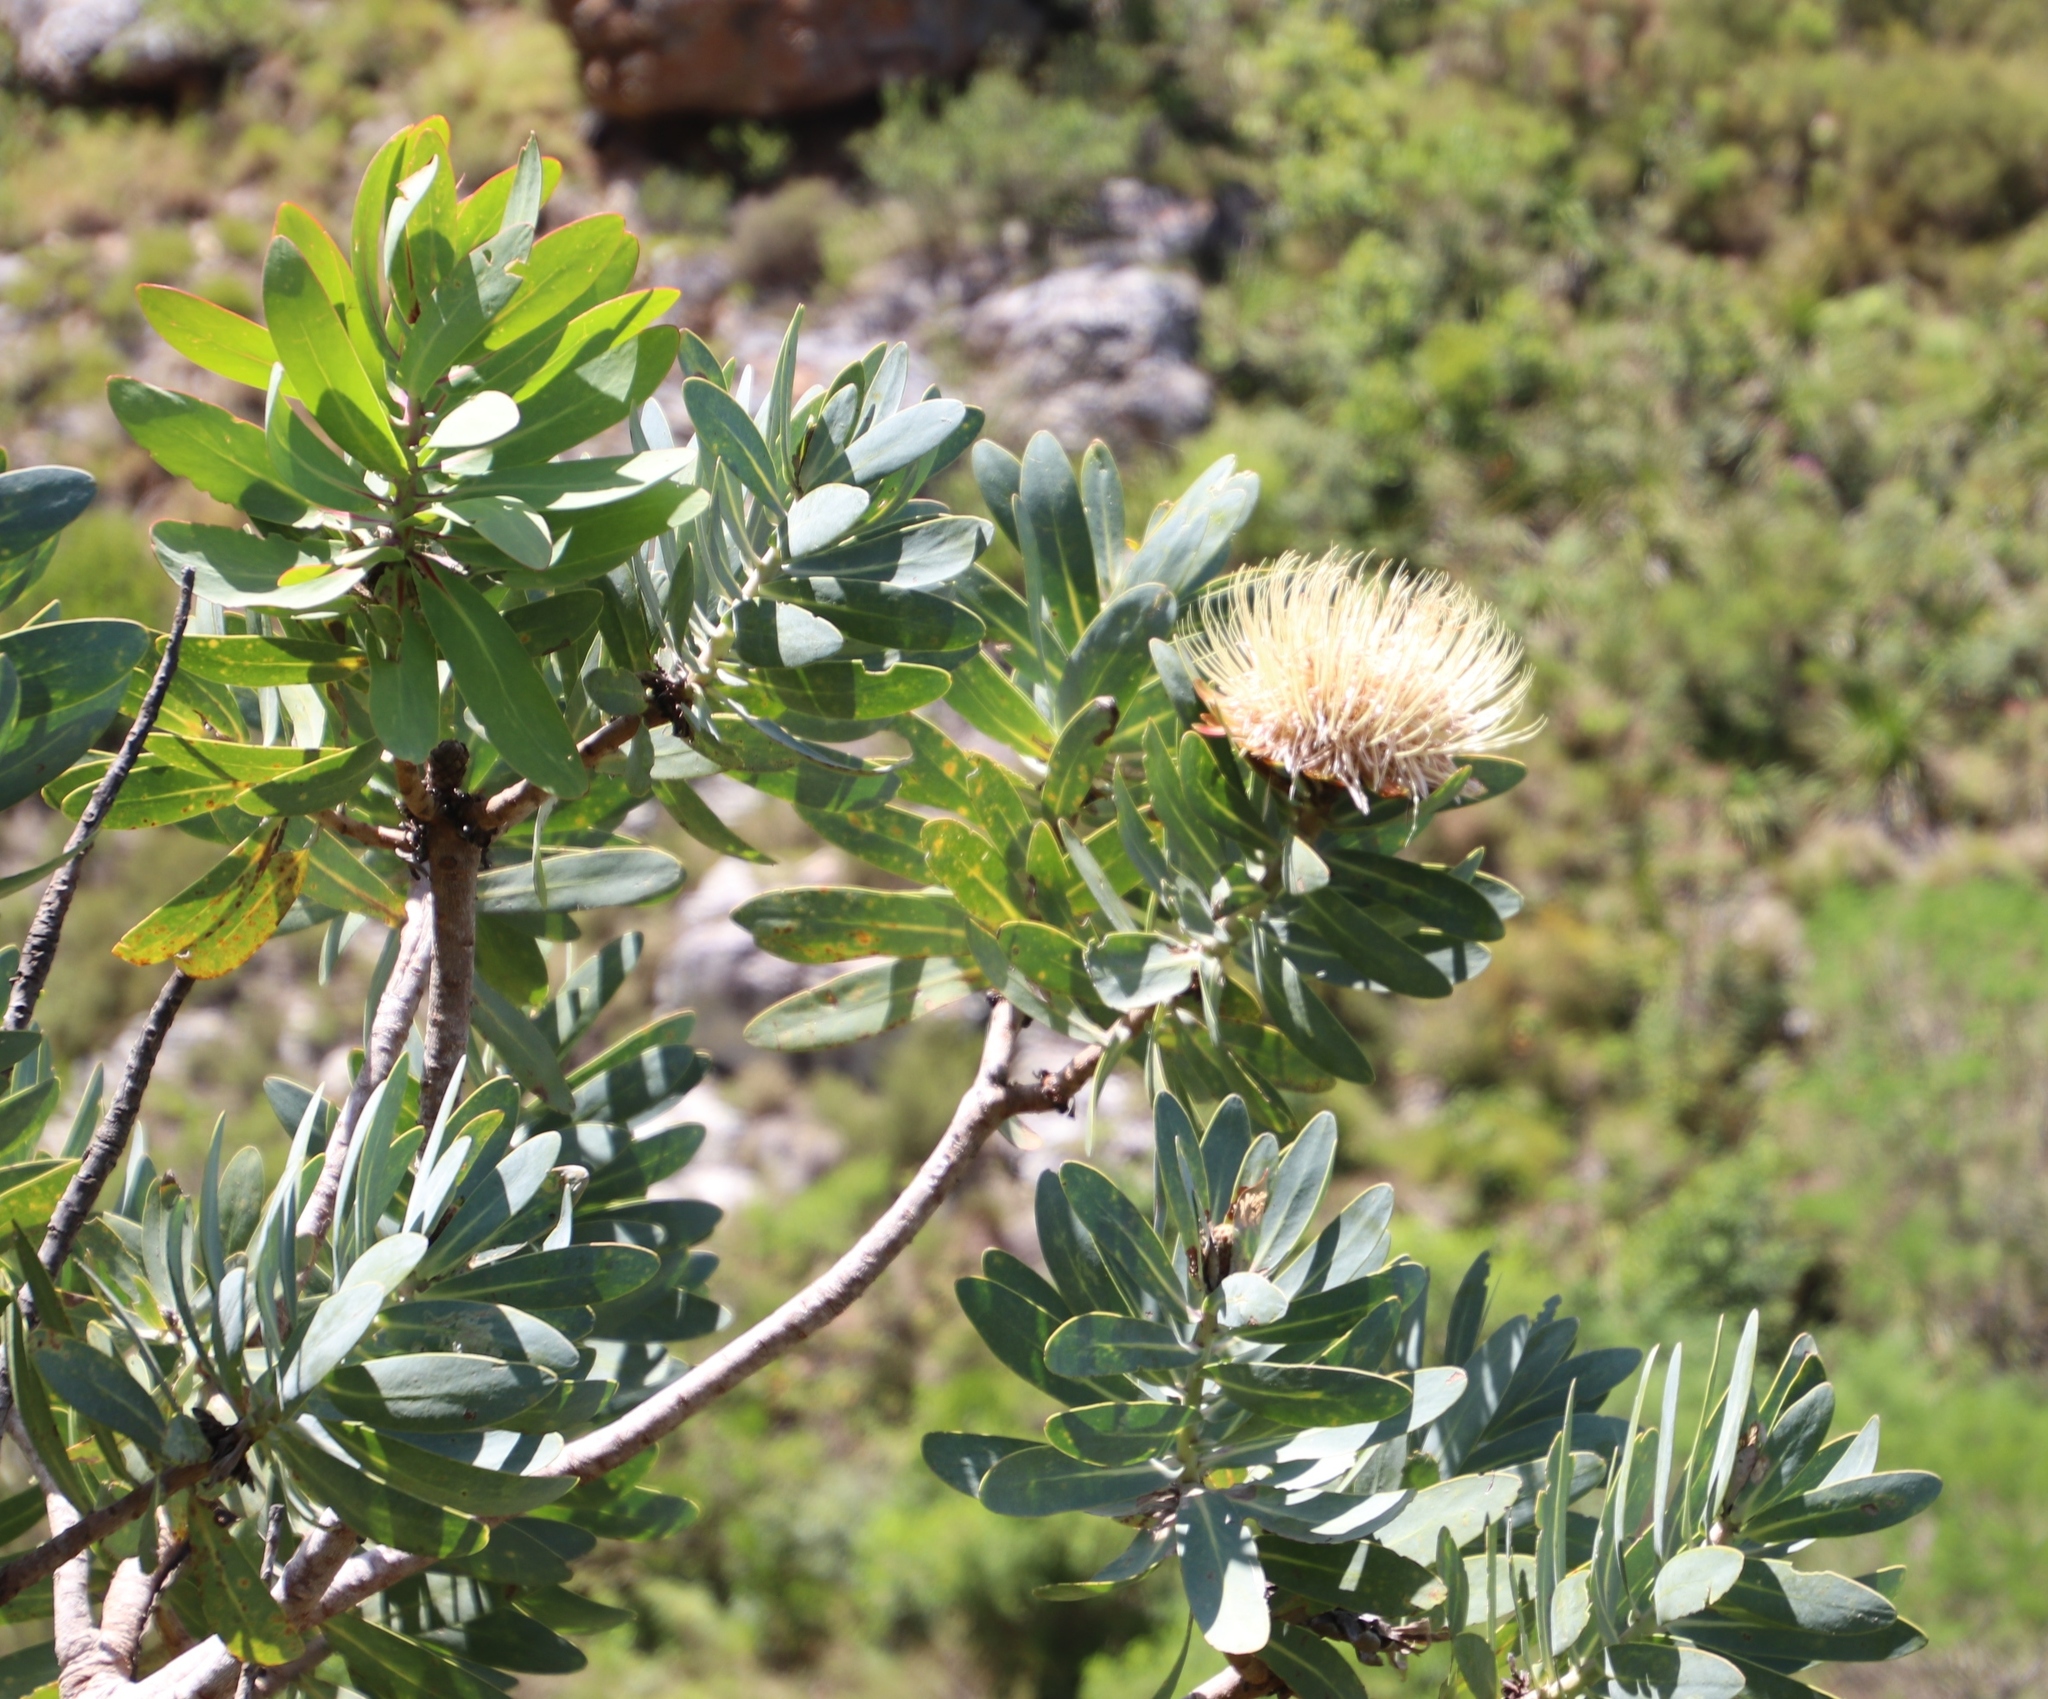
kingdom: Plantae
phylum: Tracheophyta
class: Magnoliopsida
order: Proteales
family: Proteaceae
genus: Protea
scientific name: Protea nitida
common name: Tree protea
